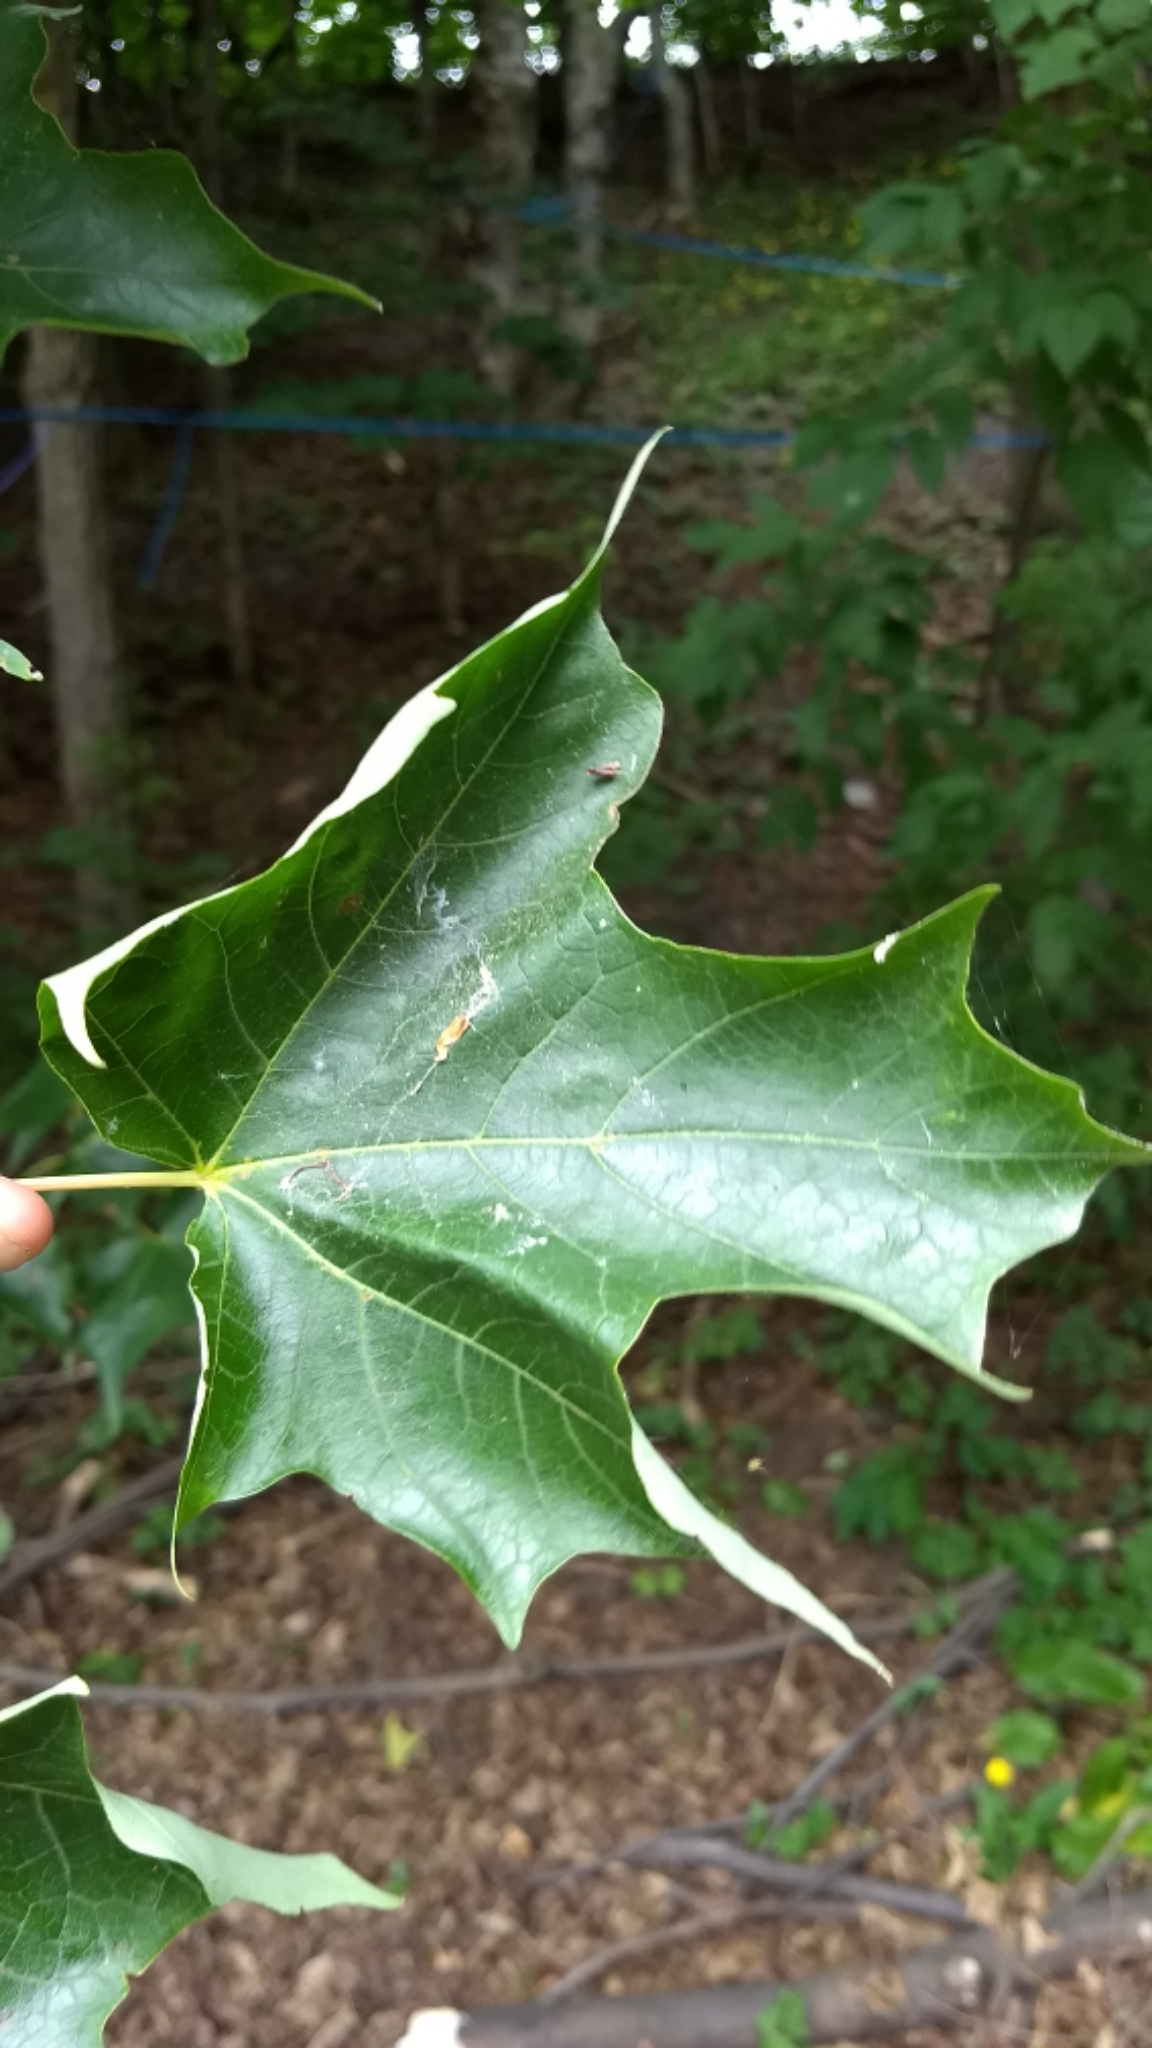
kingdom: Plantae
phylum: Tracheophyta
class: Magnoliopsida
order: Sapindales
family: Sapindaceae
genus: Acer
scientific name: Acer saccharum
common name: Sugar maple
